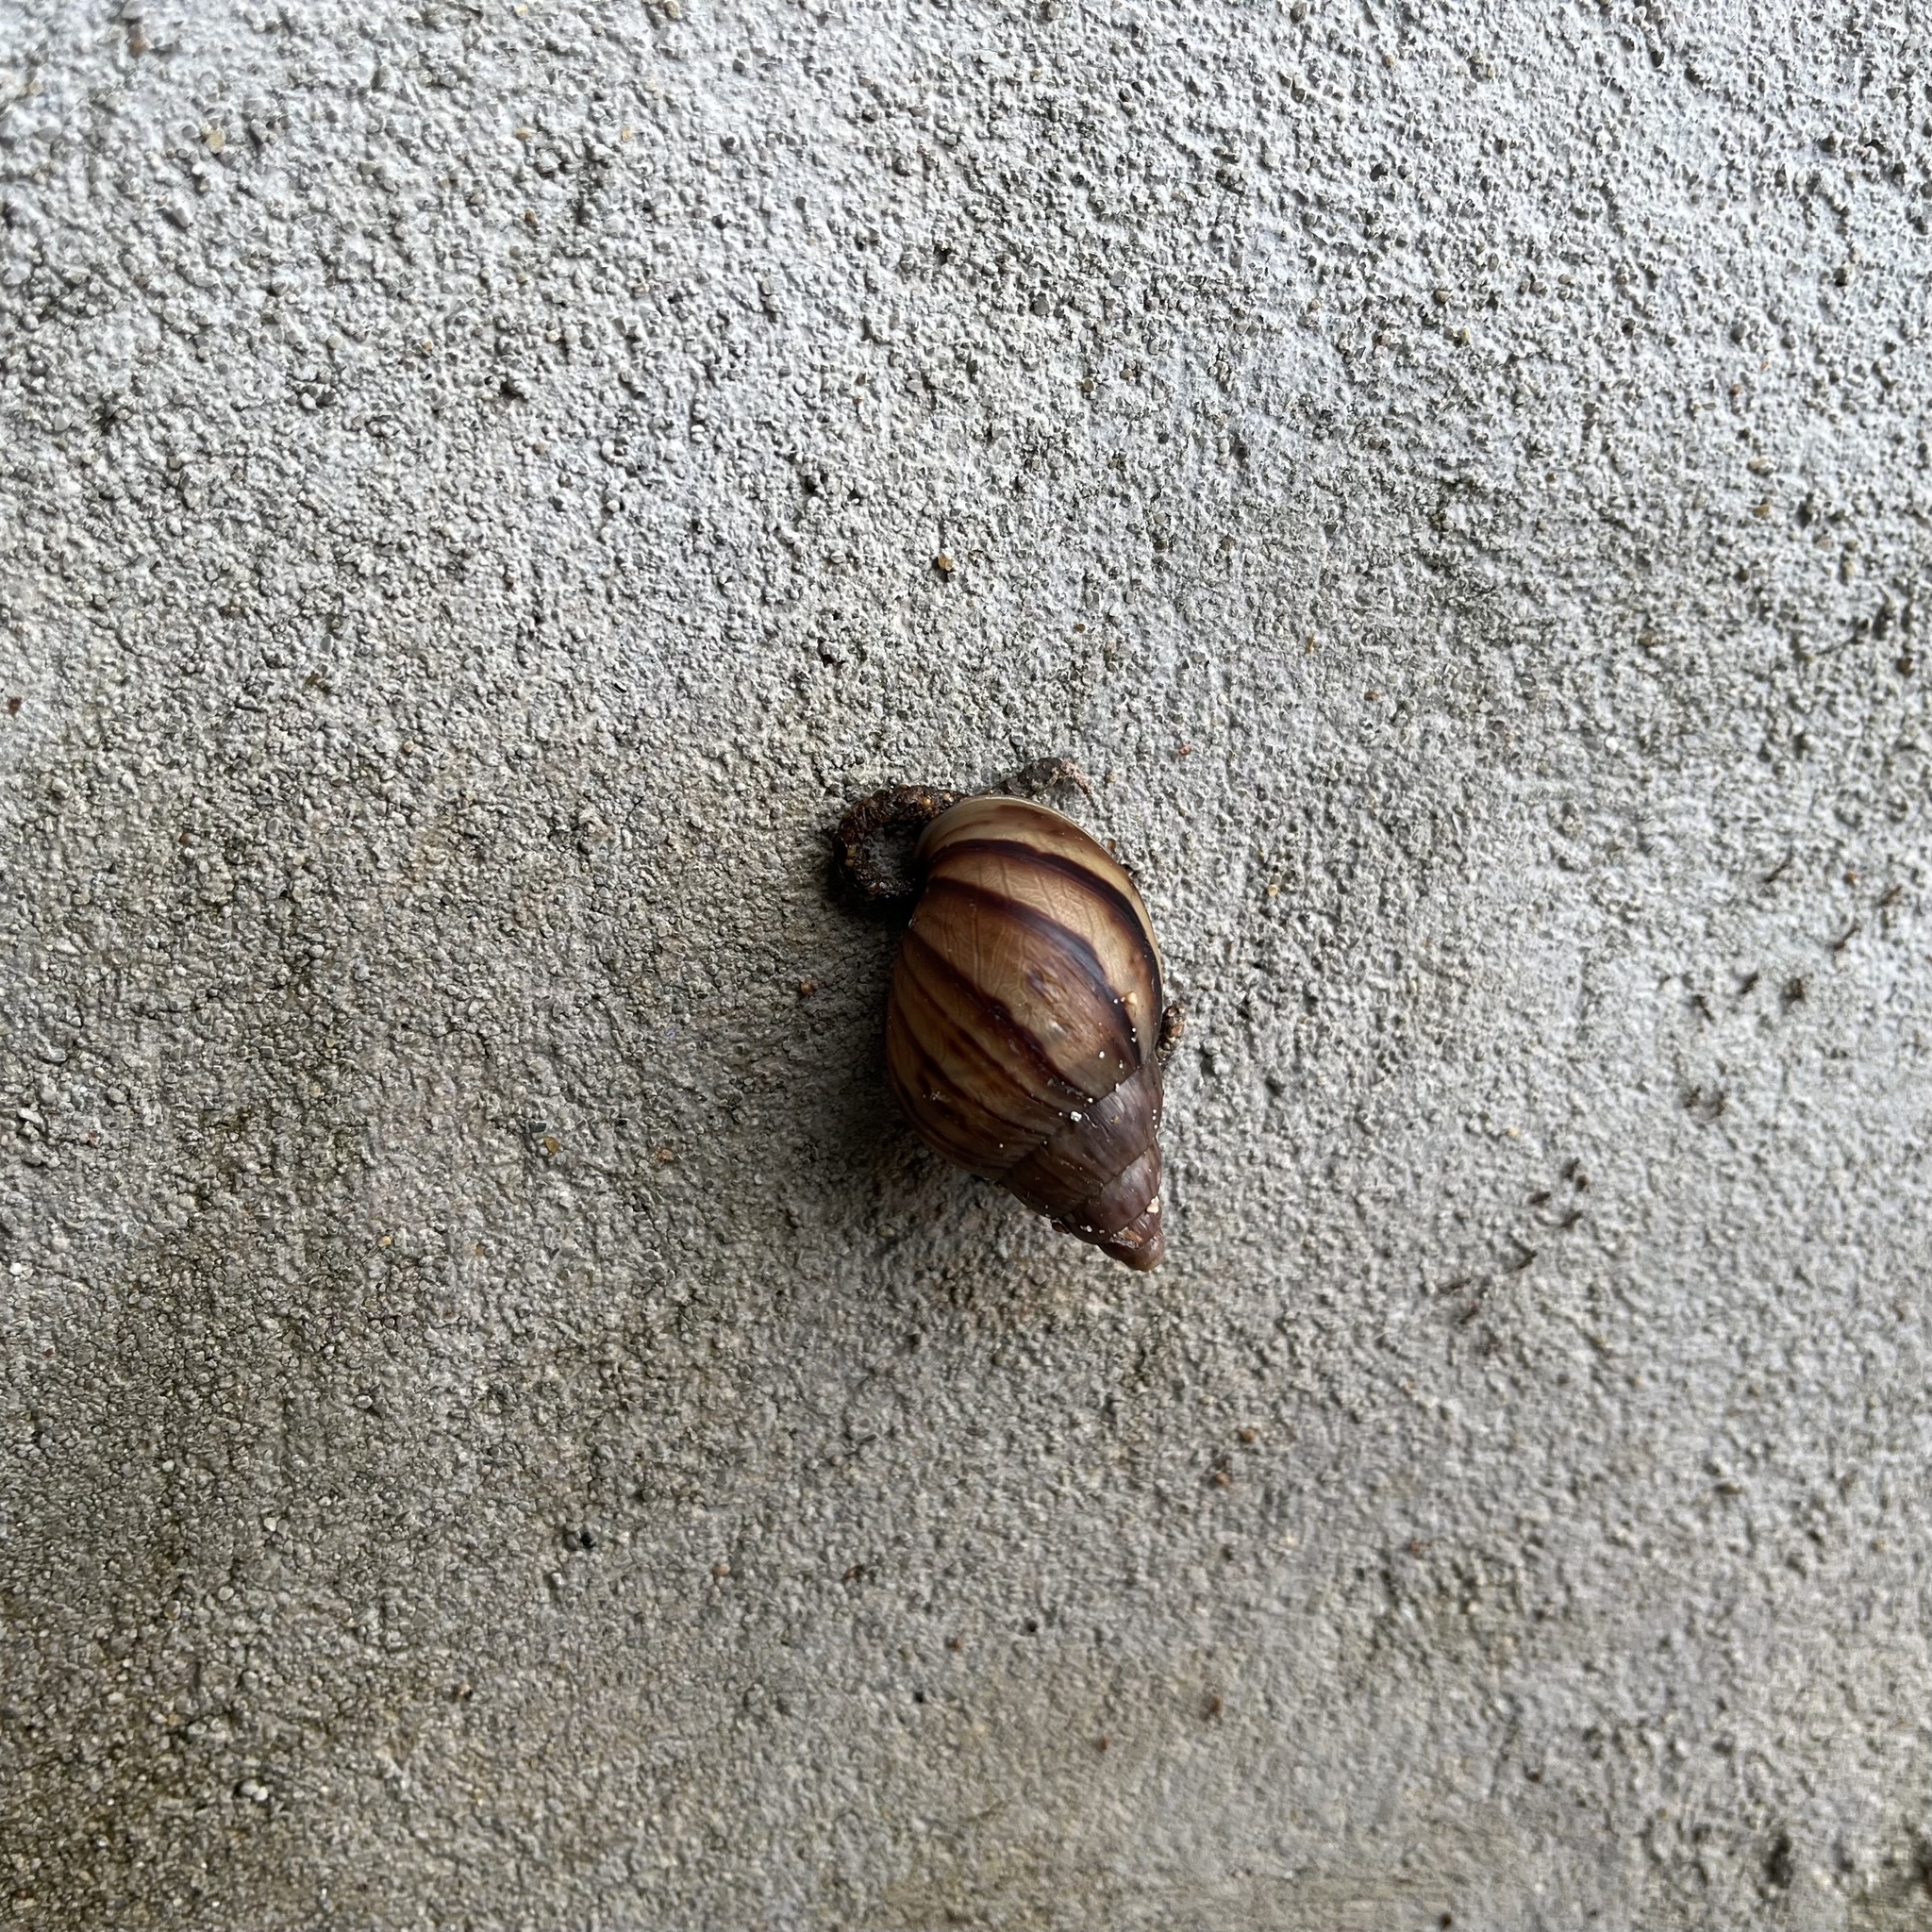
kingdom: Animalia
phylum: Mollusca
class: Gastropoda
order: Stylommatophora
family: Achatinidae
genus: Lissachatina
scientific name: Lissachatina fulica
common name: Giant african snail
